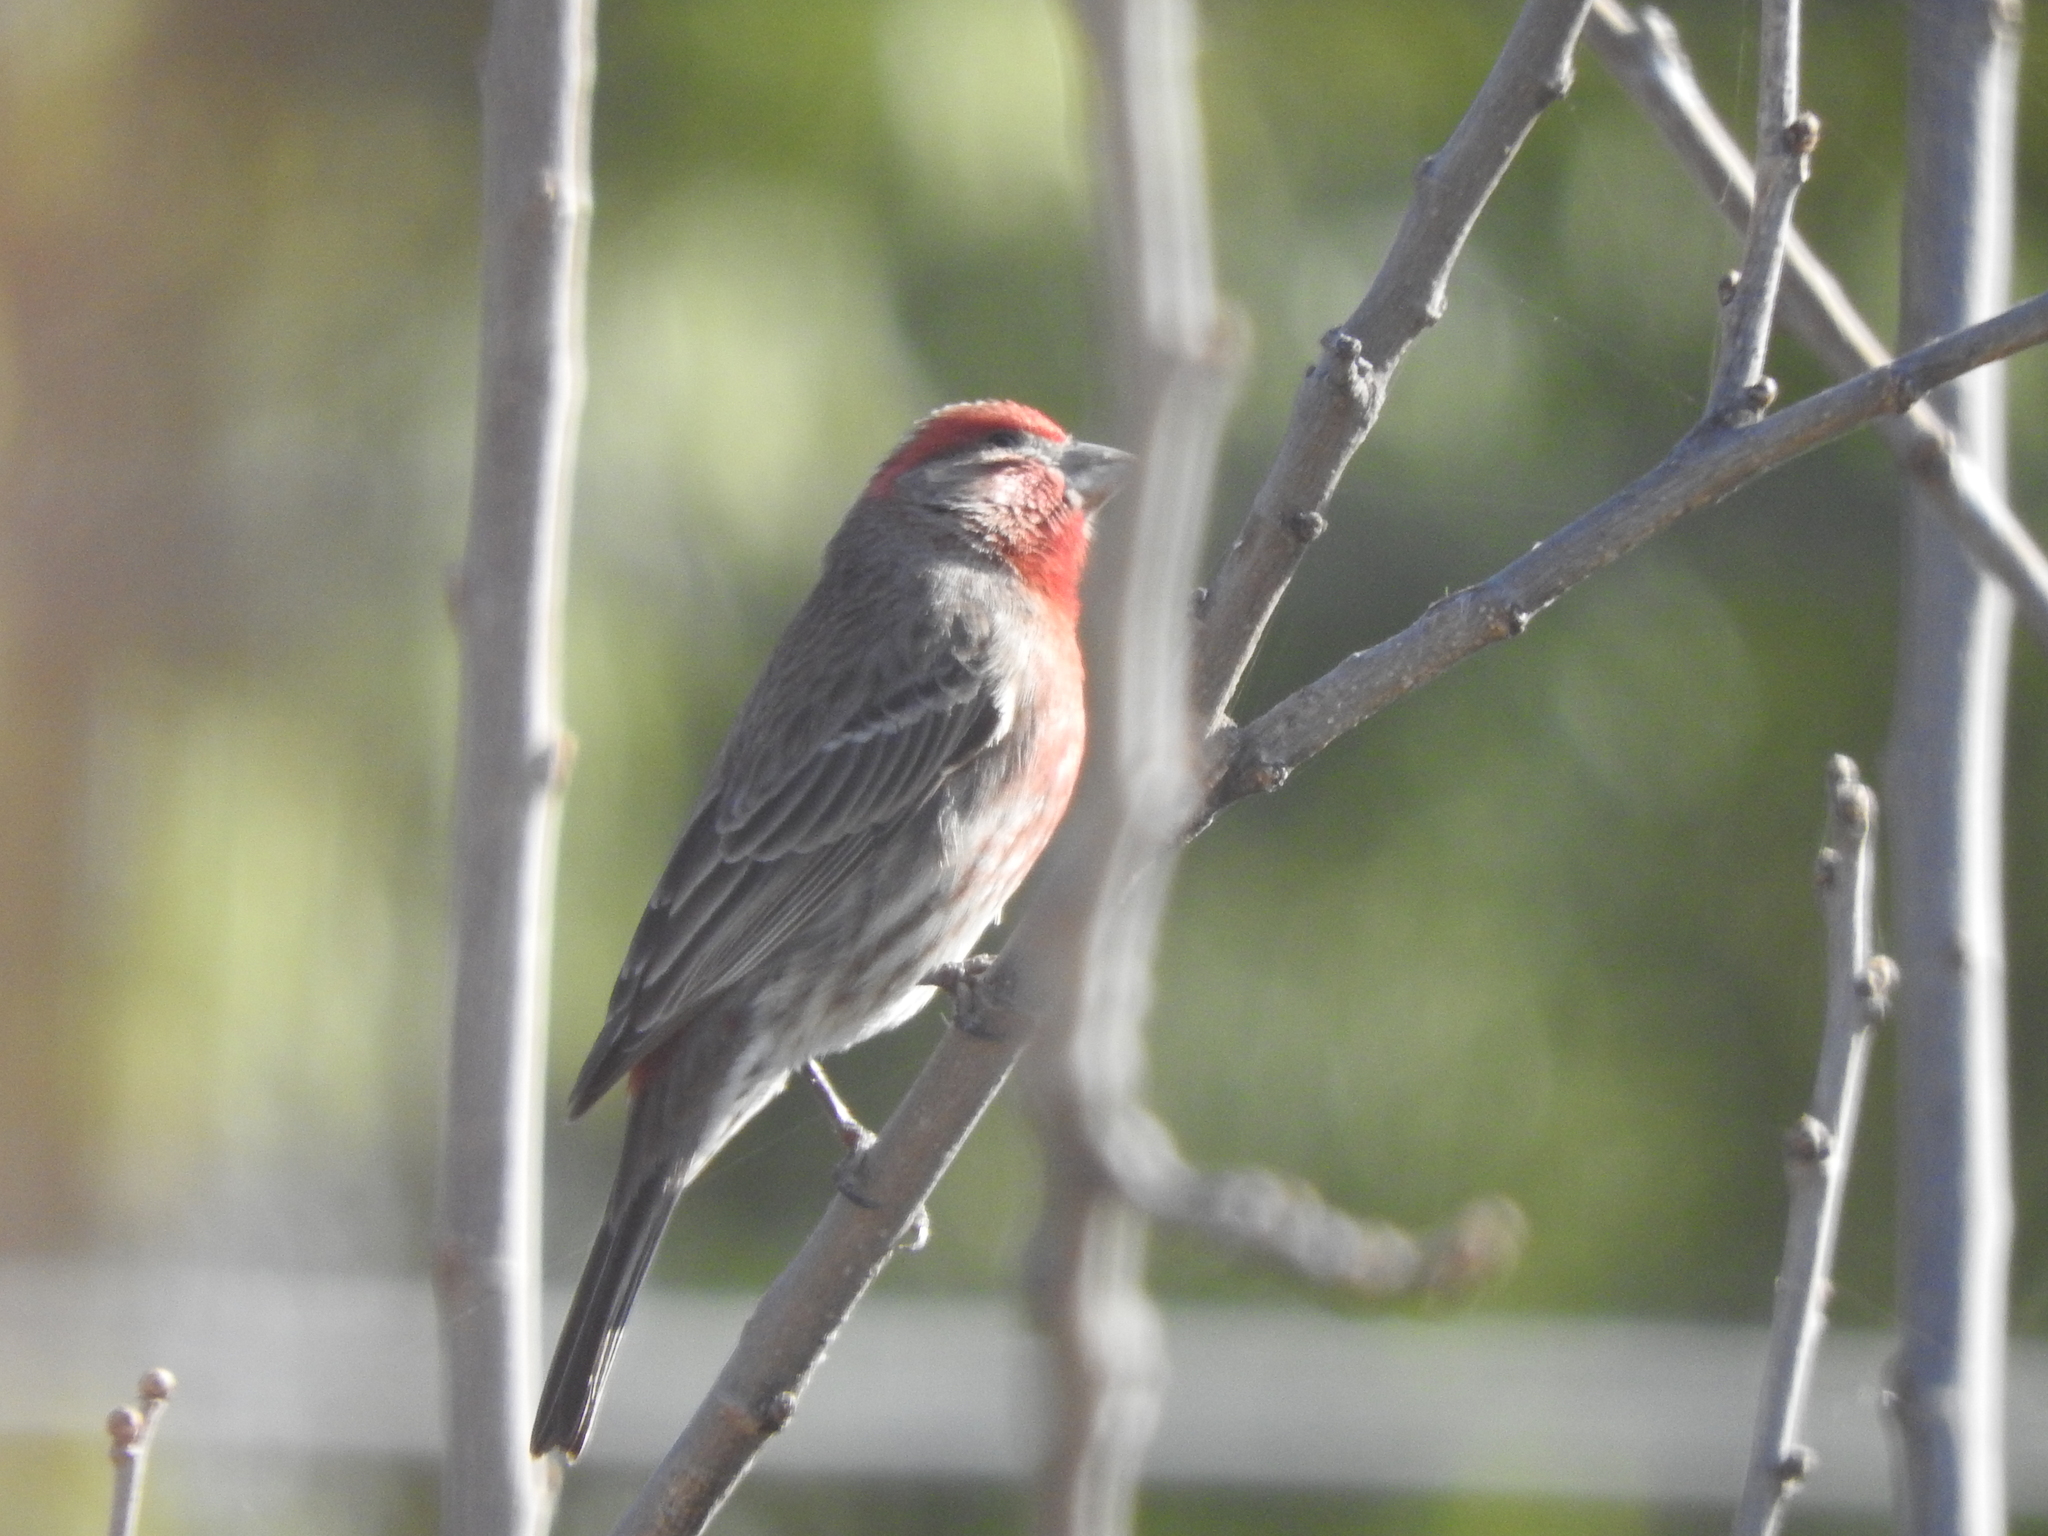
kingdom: Animalia
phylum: Chordata
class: Aves
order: Passeriformes
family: Fringillidae
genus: Haemorhous
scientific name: Haemorhous mexicanus
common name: House finch
